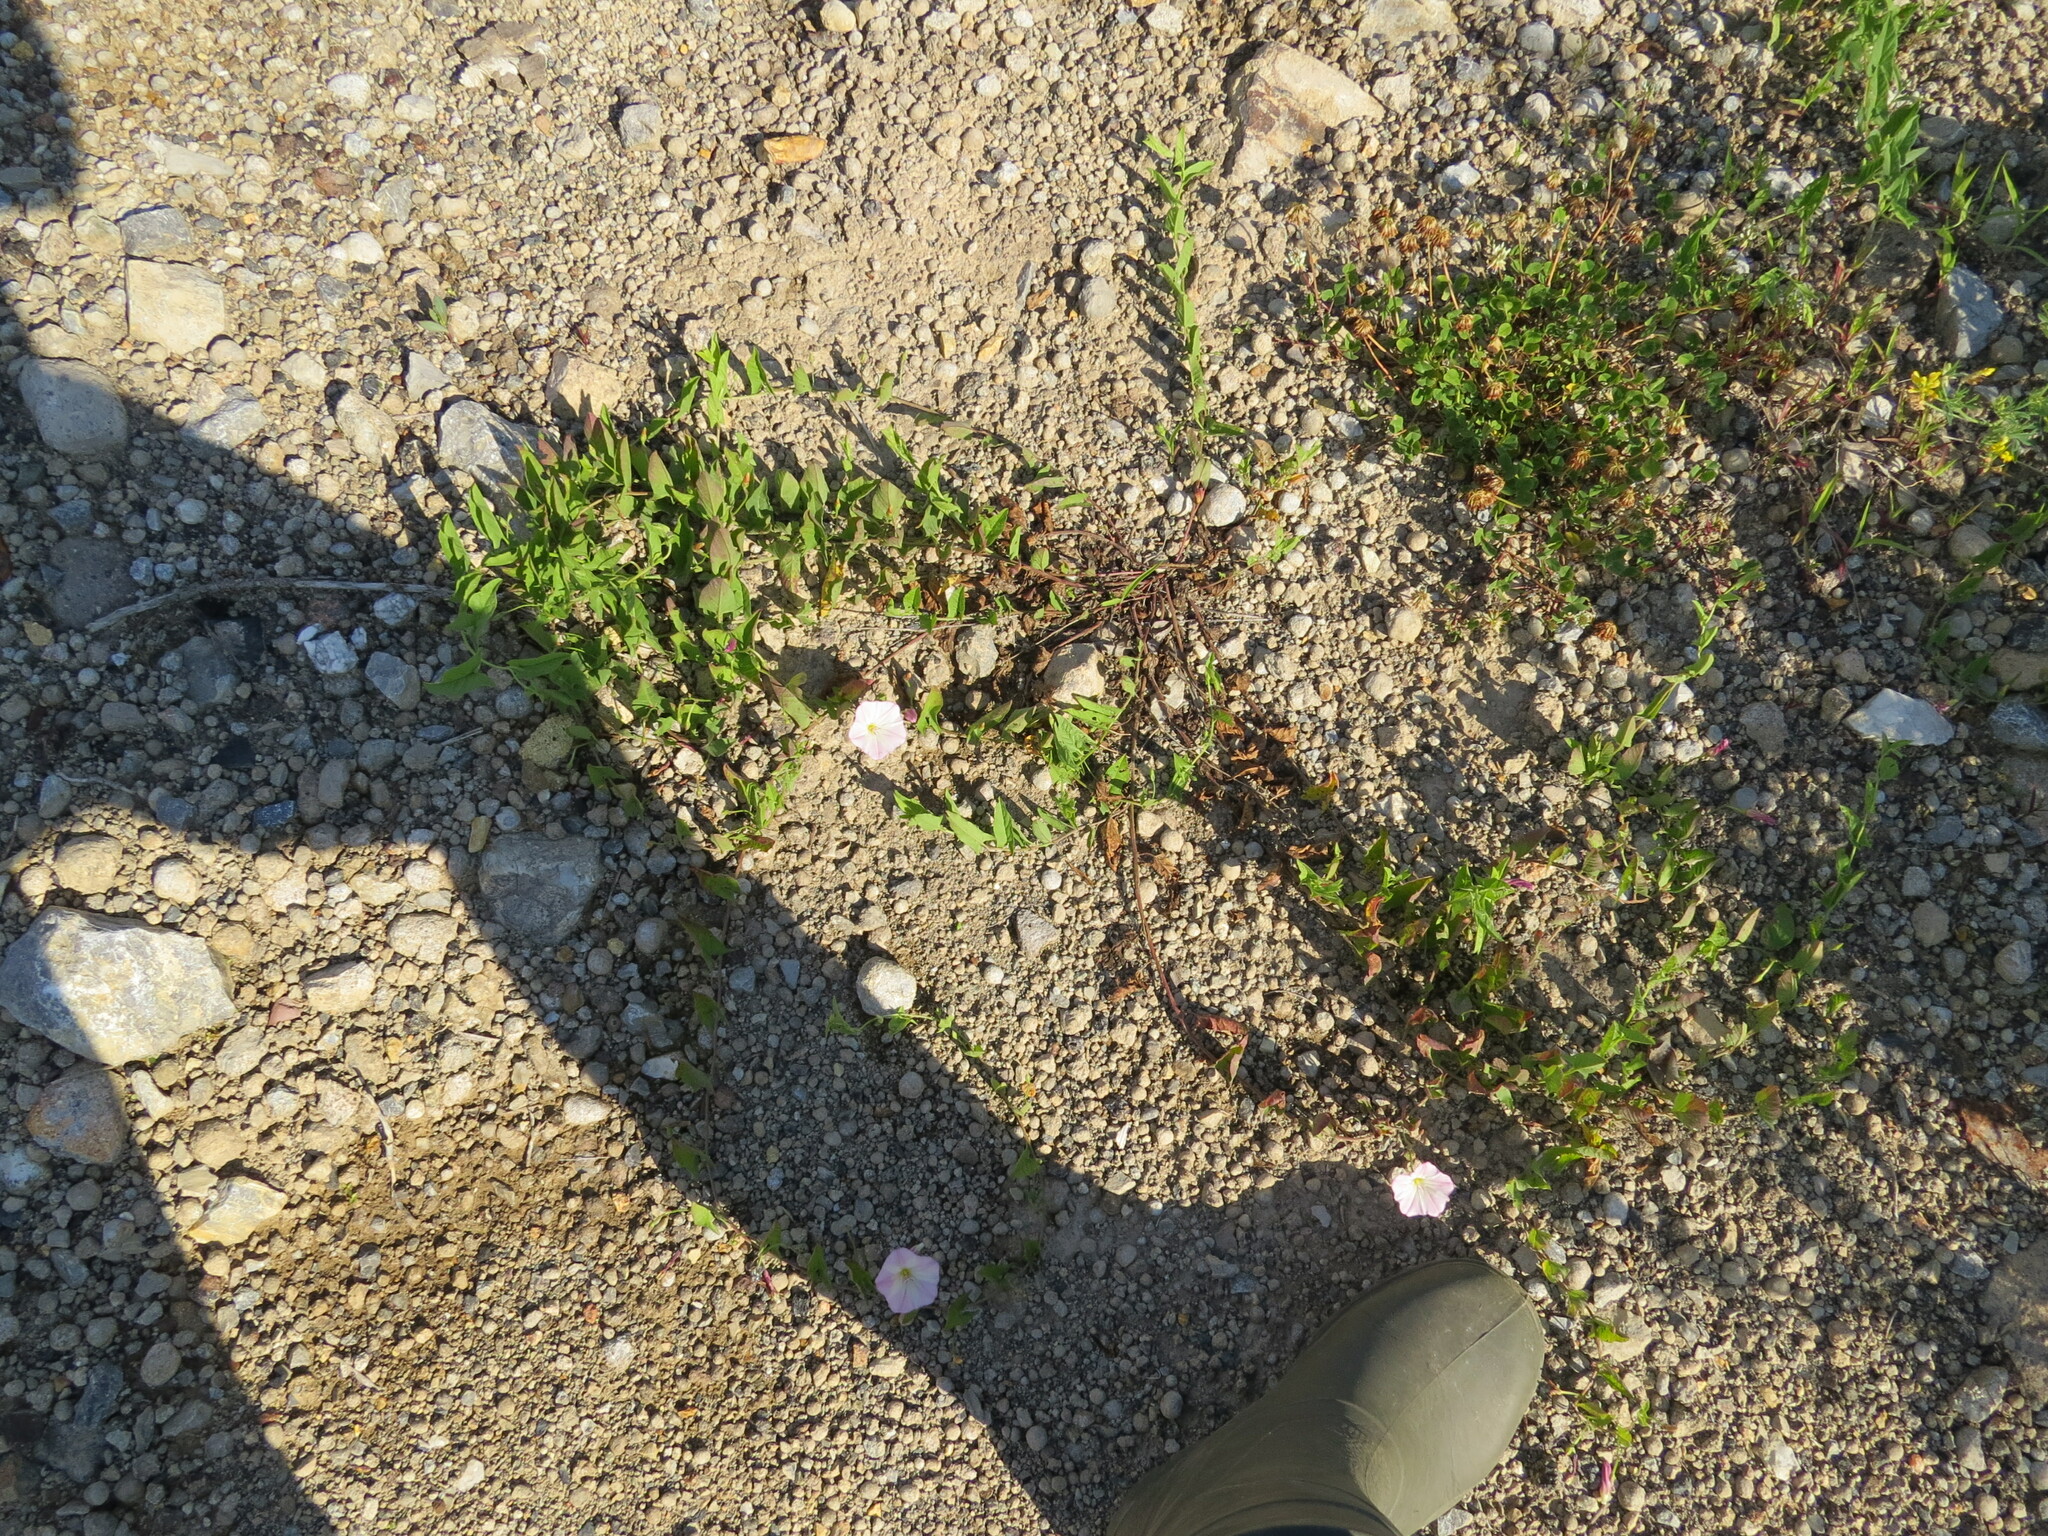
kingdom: Plantae
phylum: Tracheophyta
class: Magnoliopsida
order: Solanales
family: Convolvulaceae
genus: Convolvulus
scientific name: Convolvulus arvensis
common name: Field bindweed
